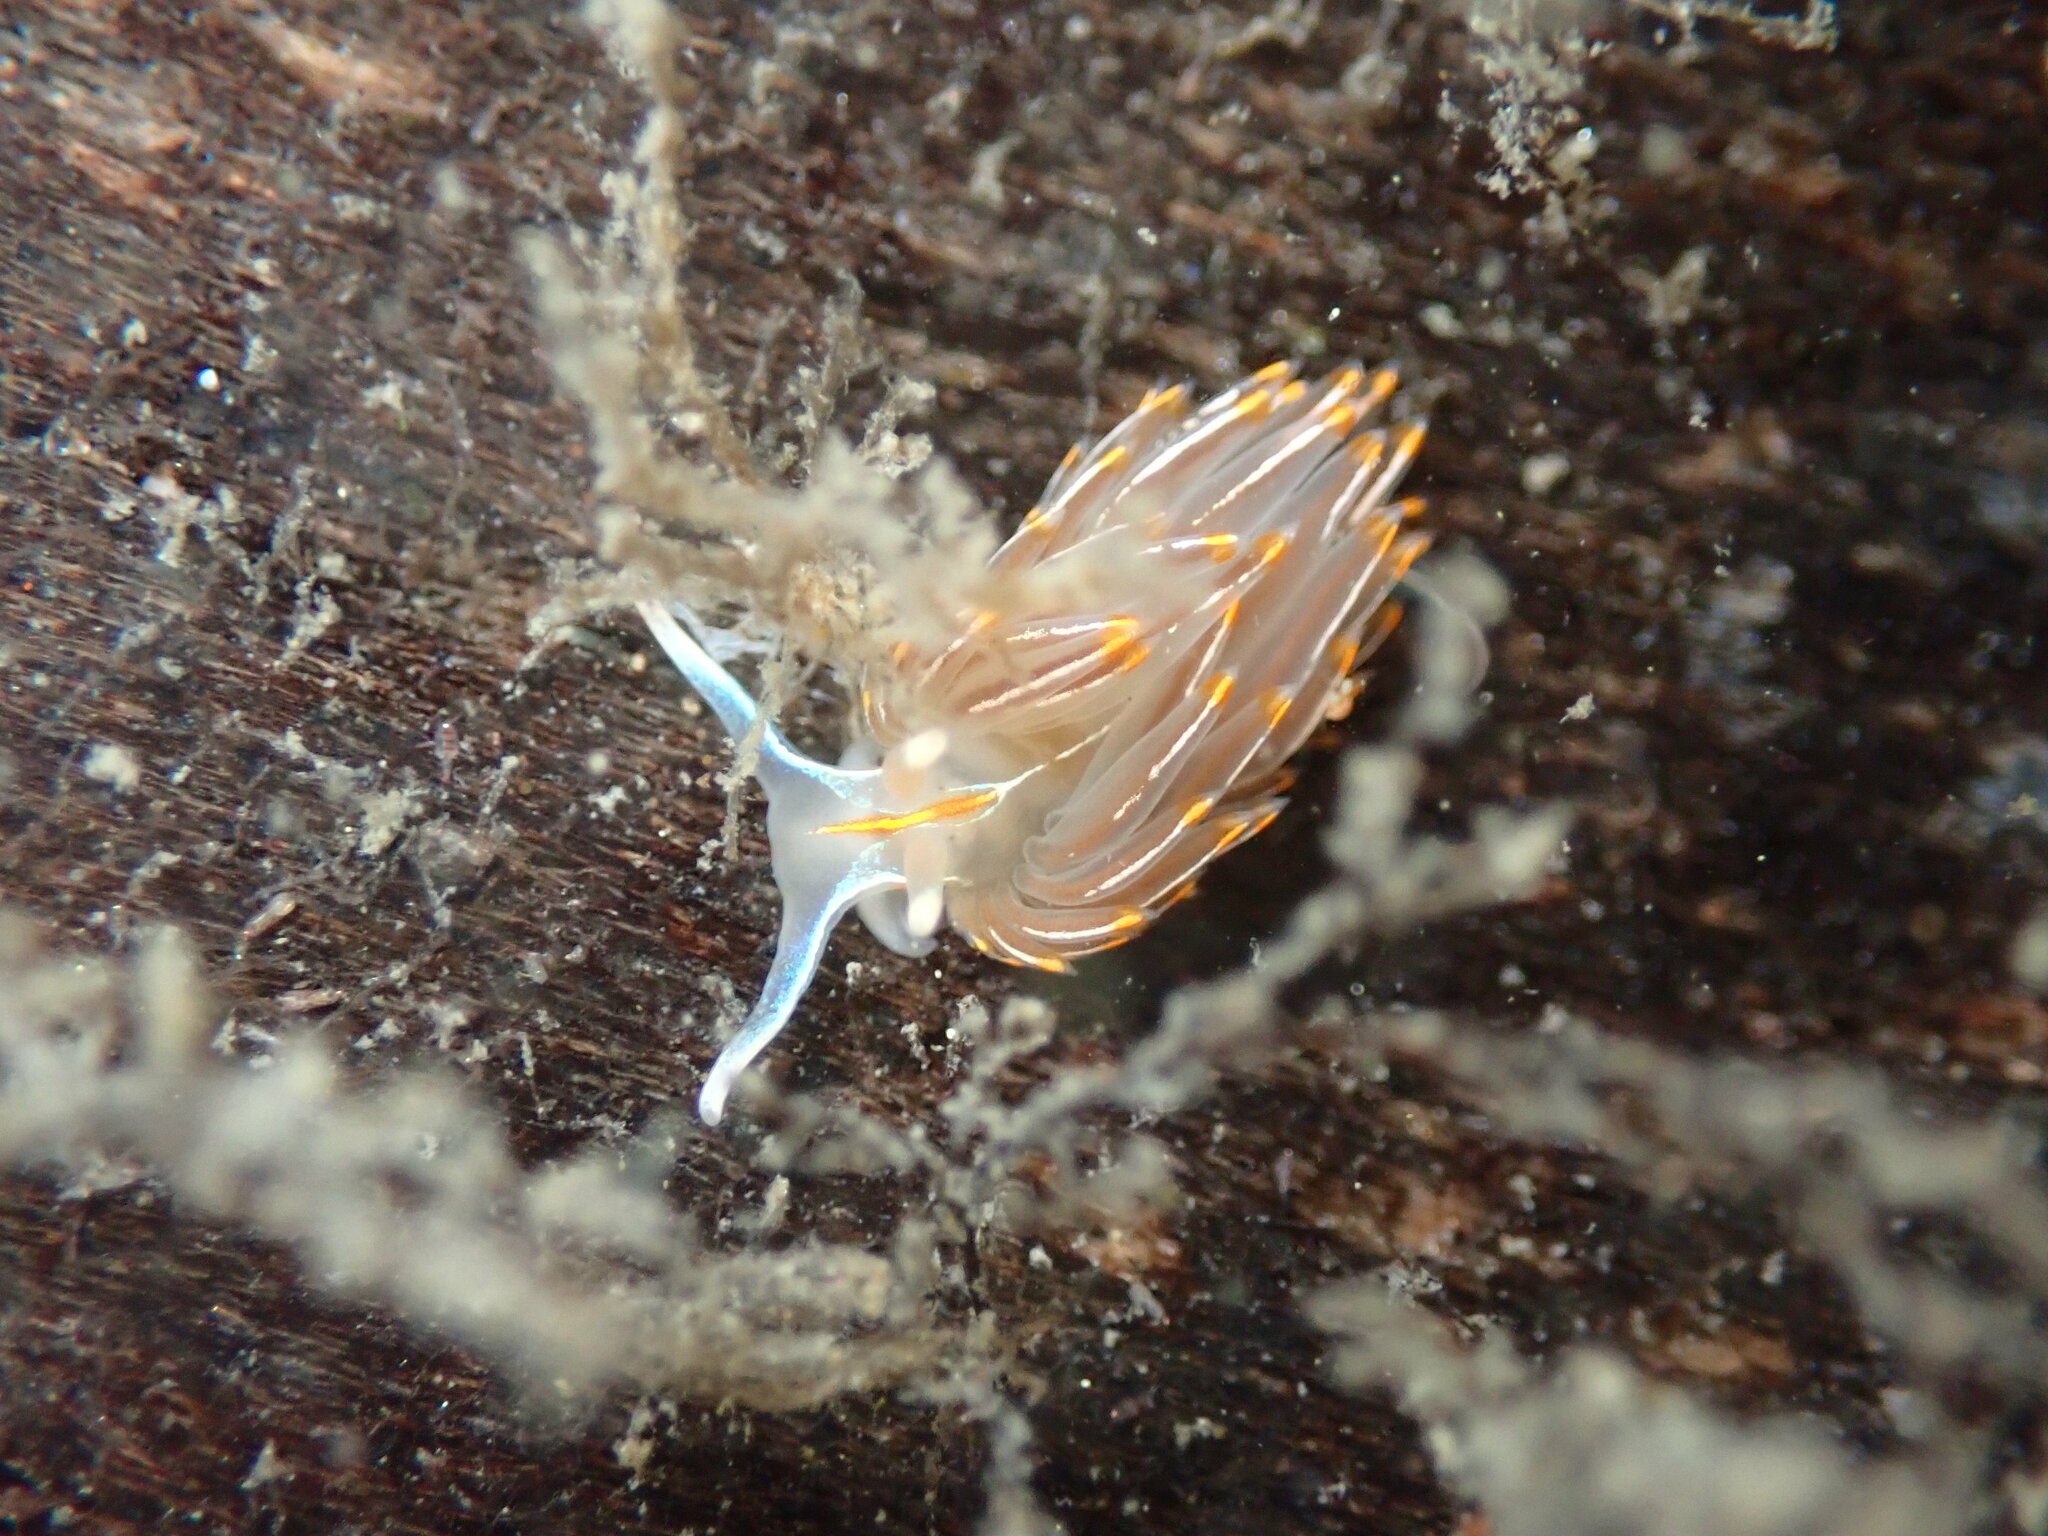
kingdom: Animalia
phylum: Mollusca
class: Gastropoda
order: Nudibranchia
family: Myrrhinidae
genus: Hermissenda
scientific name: Hermissenda crassicornis
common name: Hermissenda
